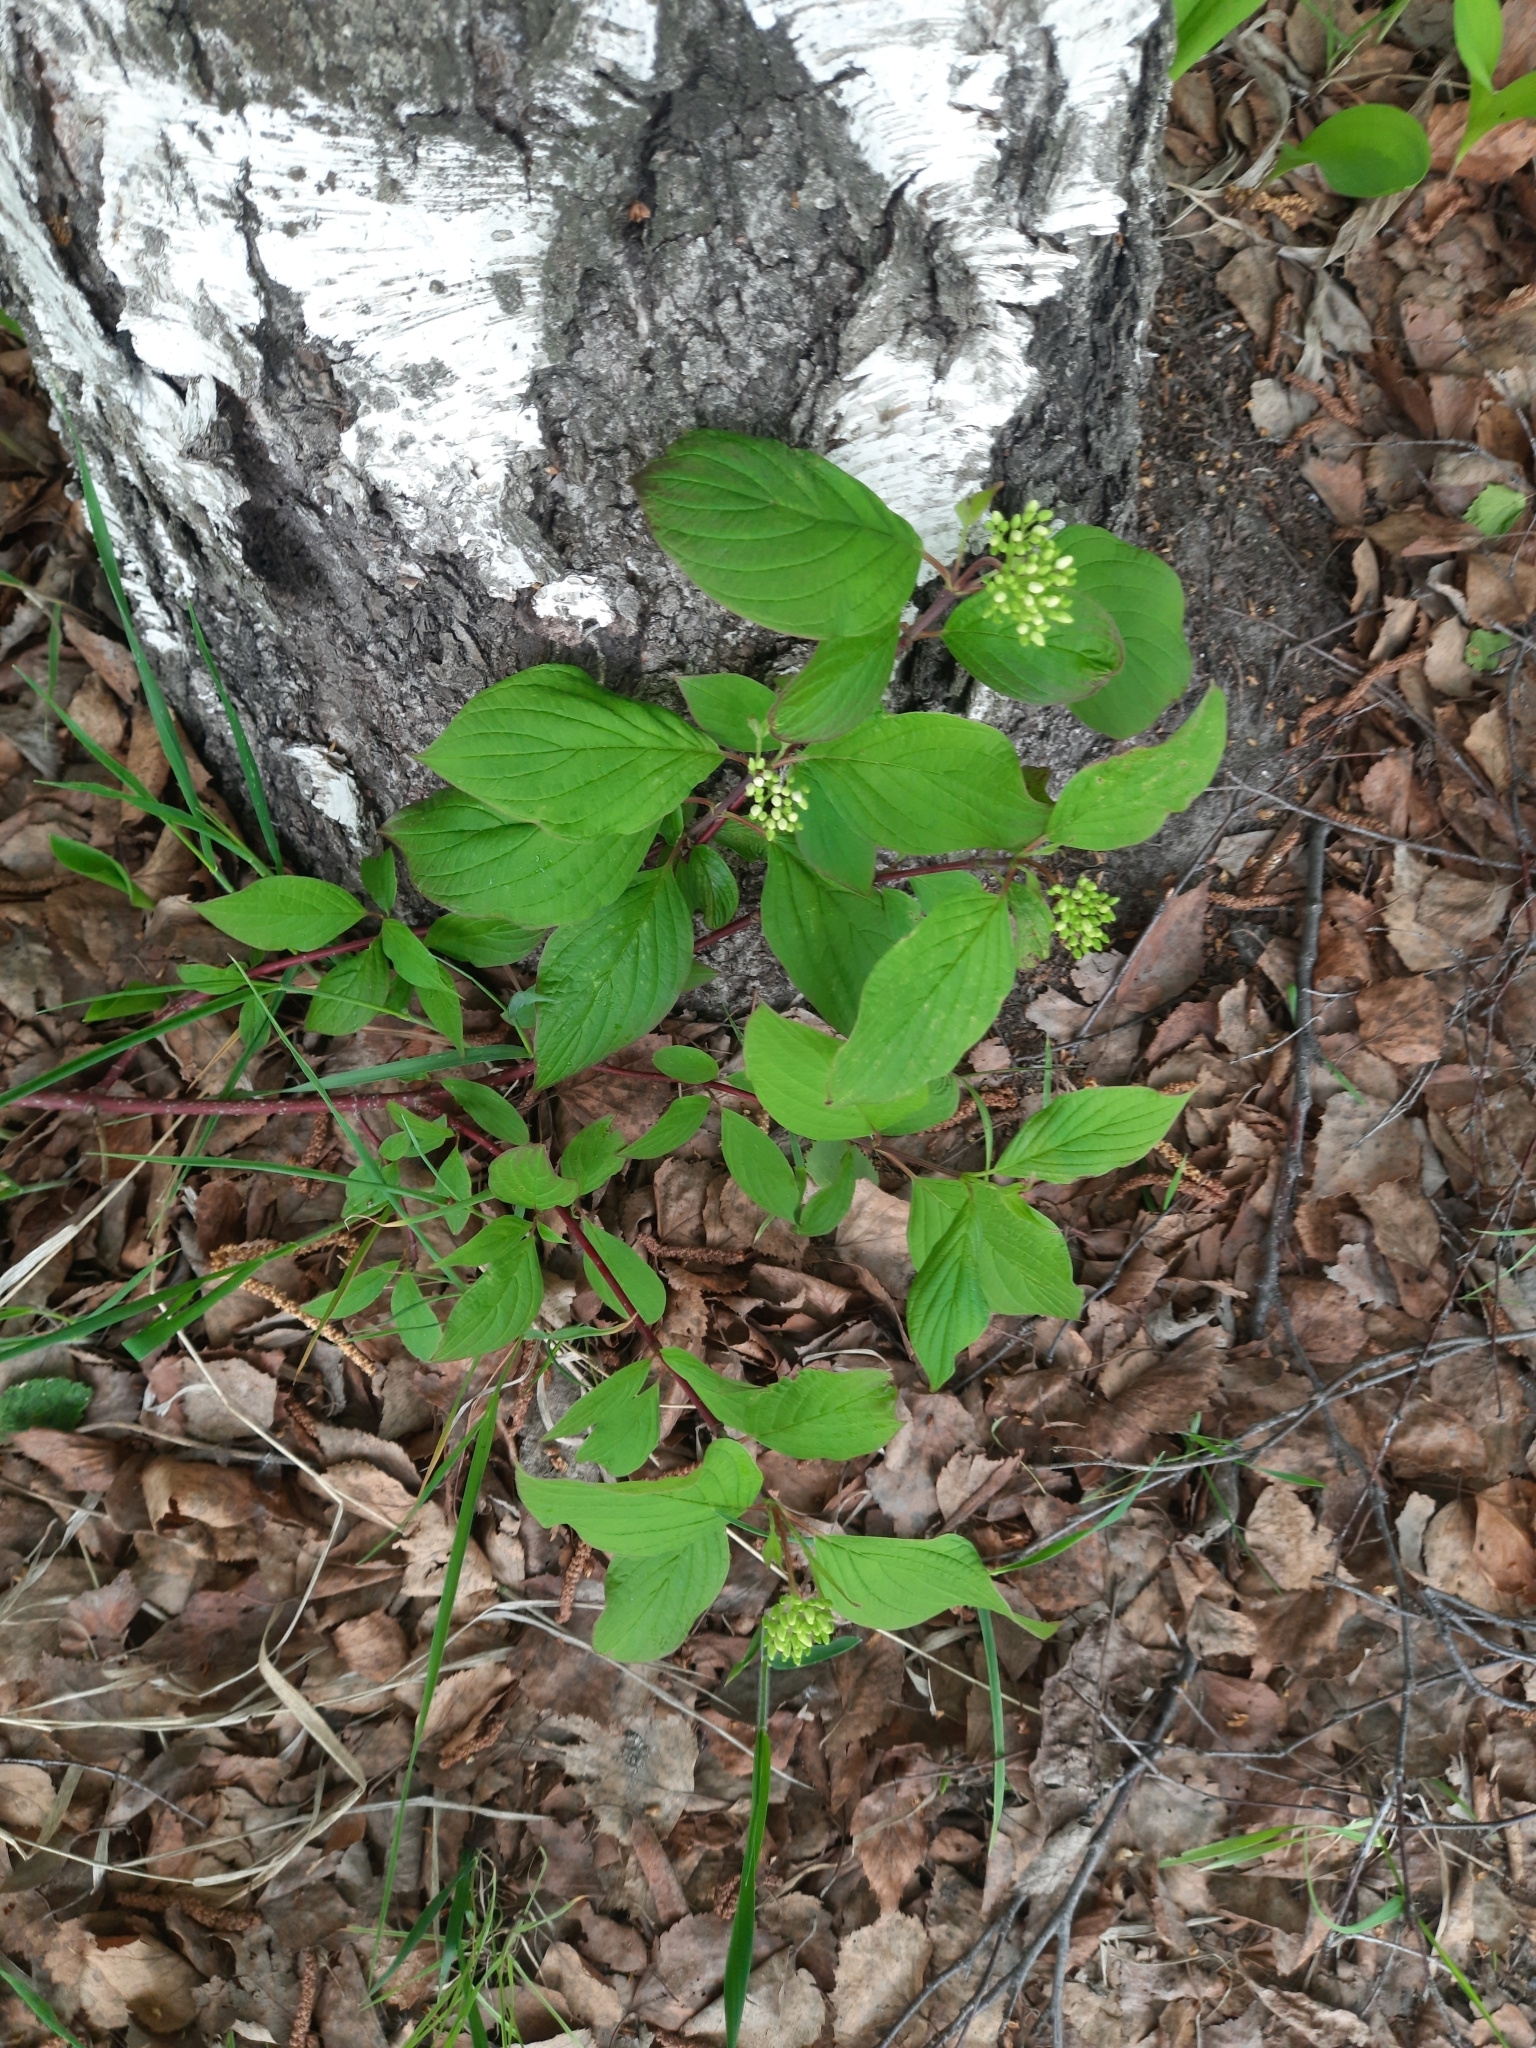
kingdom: Plantae
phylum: Tracheophyta
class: Magnoliopsida
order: Cornales
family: Cornaceae
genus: Cornus
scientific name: Cornus alba
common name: White dogwood
